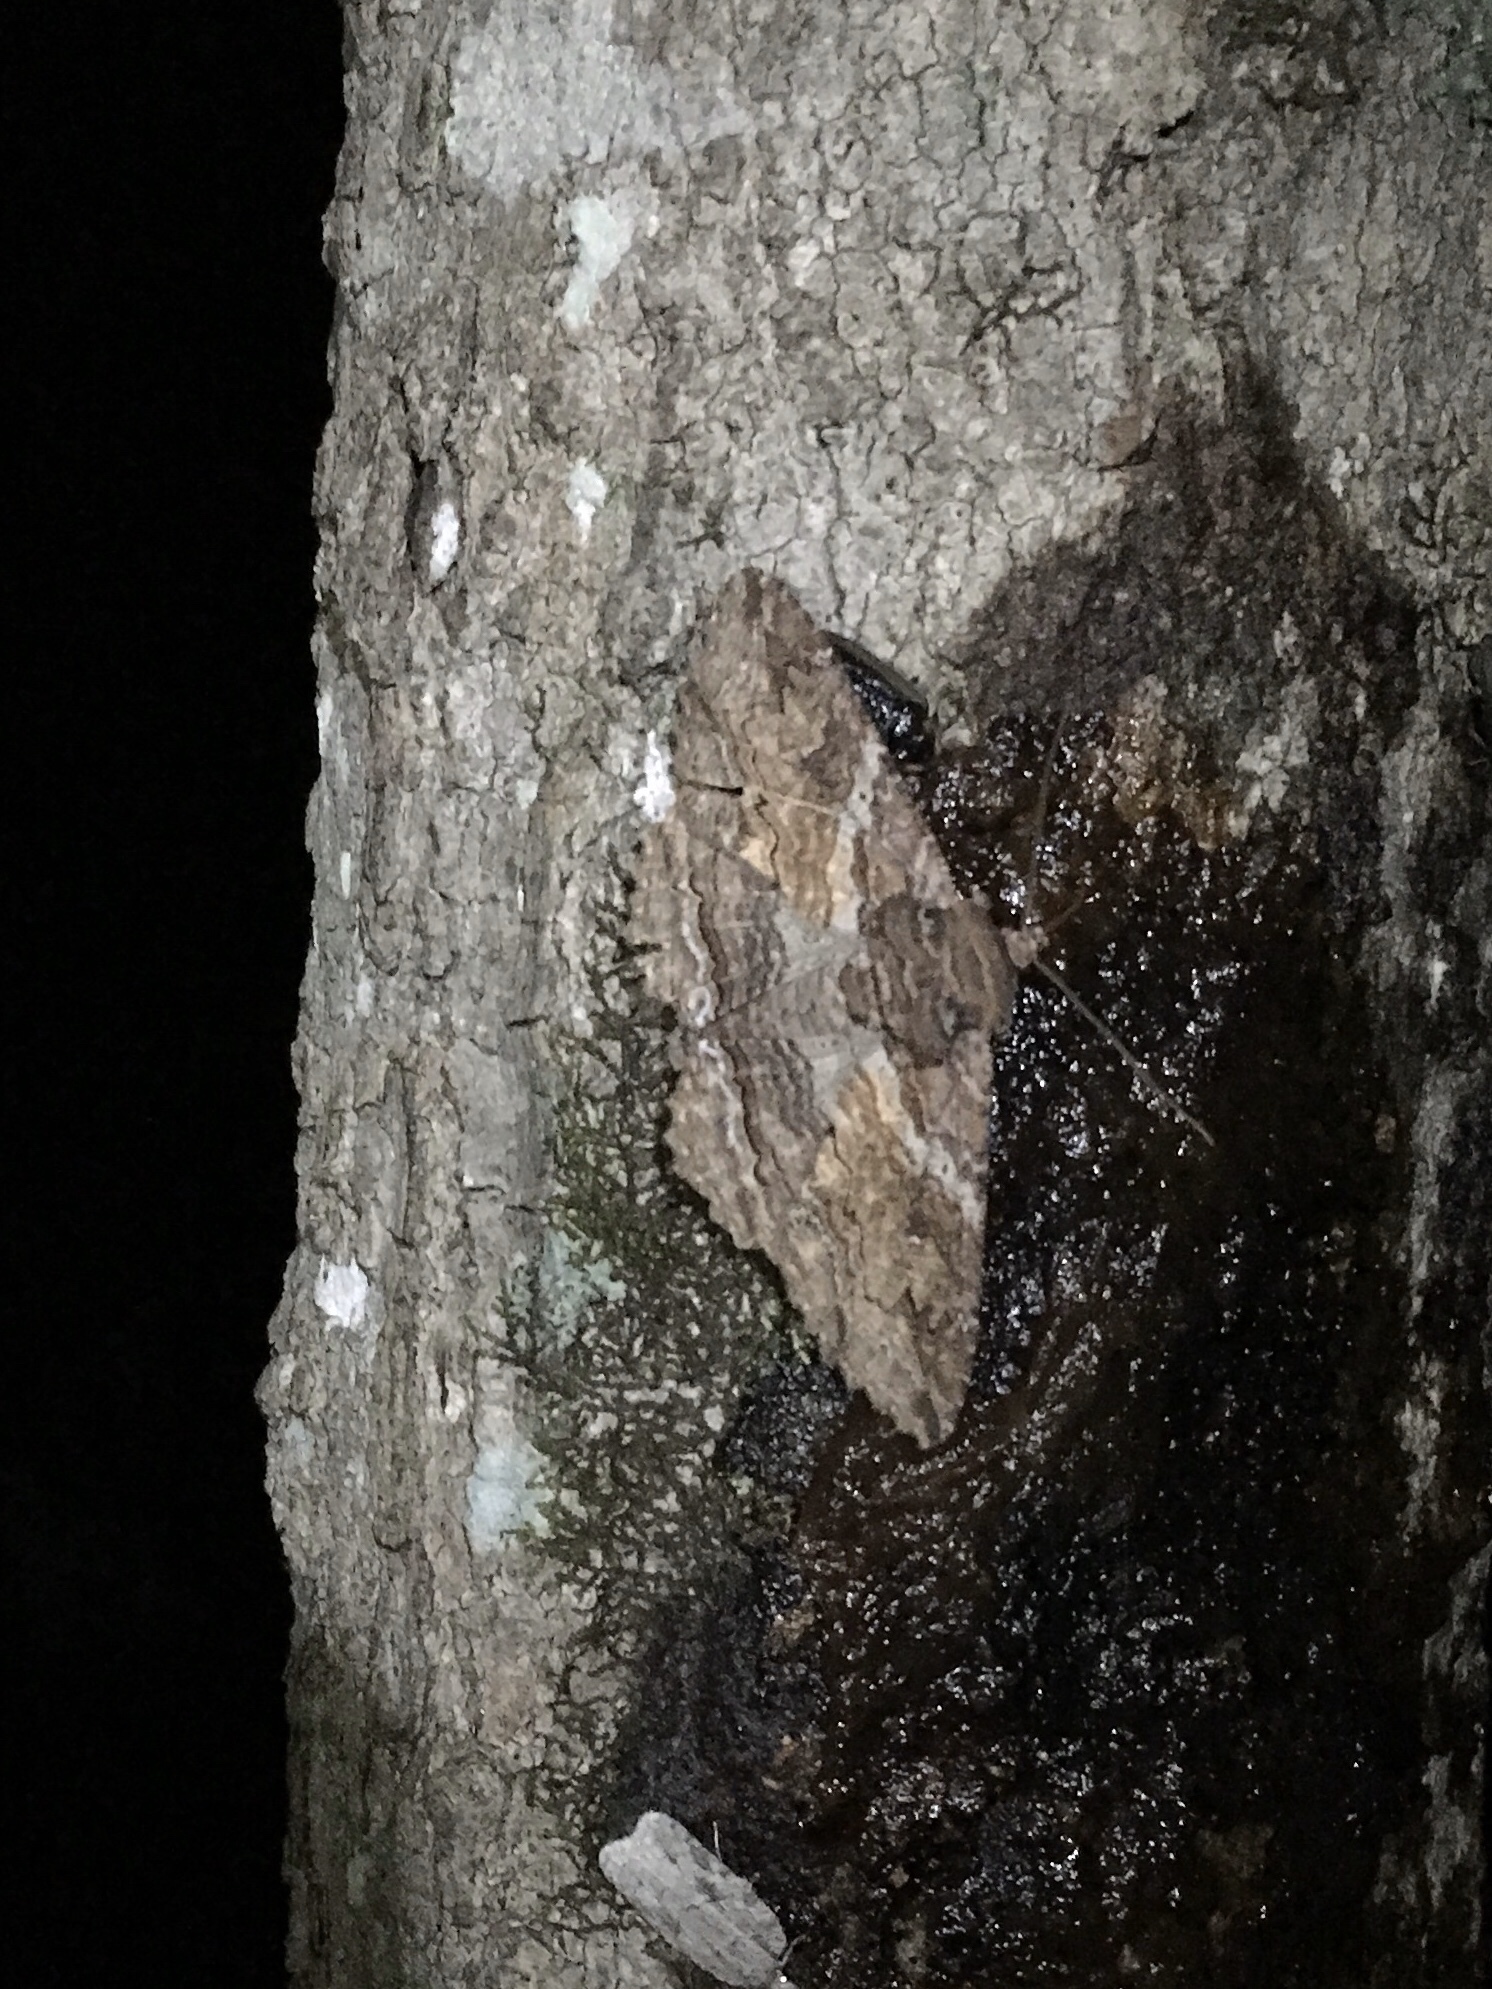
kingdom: Animalia
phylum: Arthropoda
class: Insecta
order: Lepidoptera
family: Erebidae
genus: Zale
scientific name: Zale lunata
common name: Lunate zale moth
